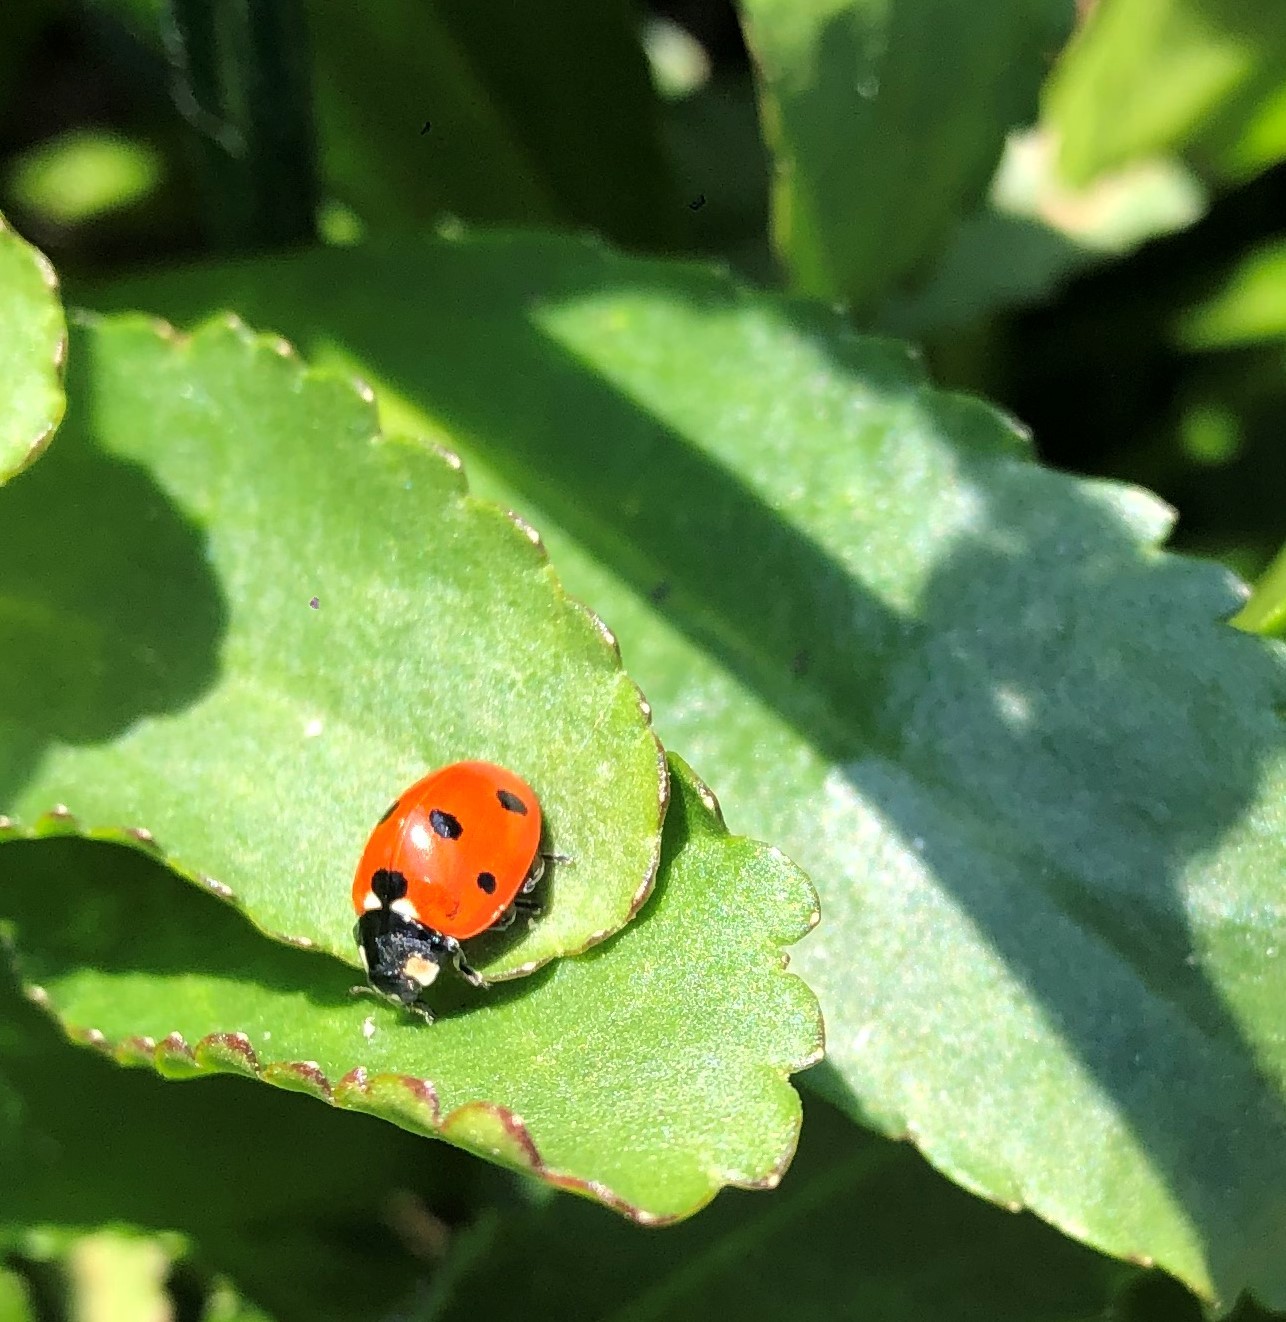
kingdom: Animalia
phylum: Arthropoda
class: Insecta
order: Coleoptera
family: Coccinellidae
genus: Coccinella
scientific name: Coccinella septempunctata
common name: Sevenspotted lady beetle
